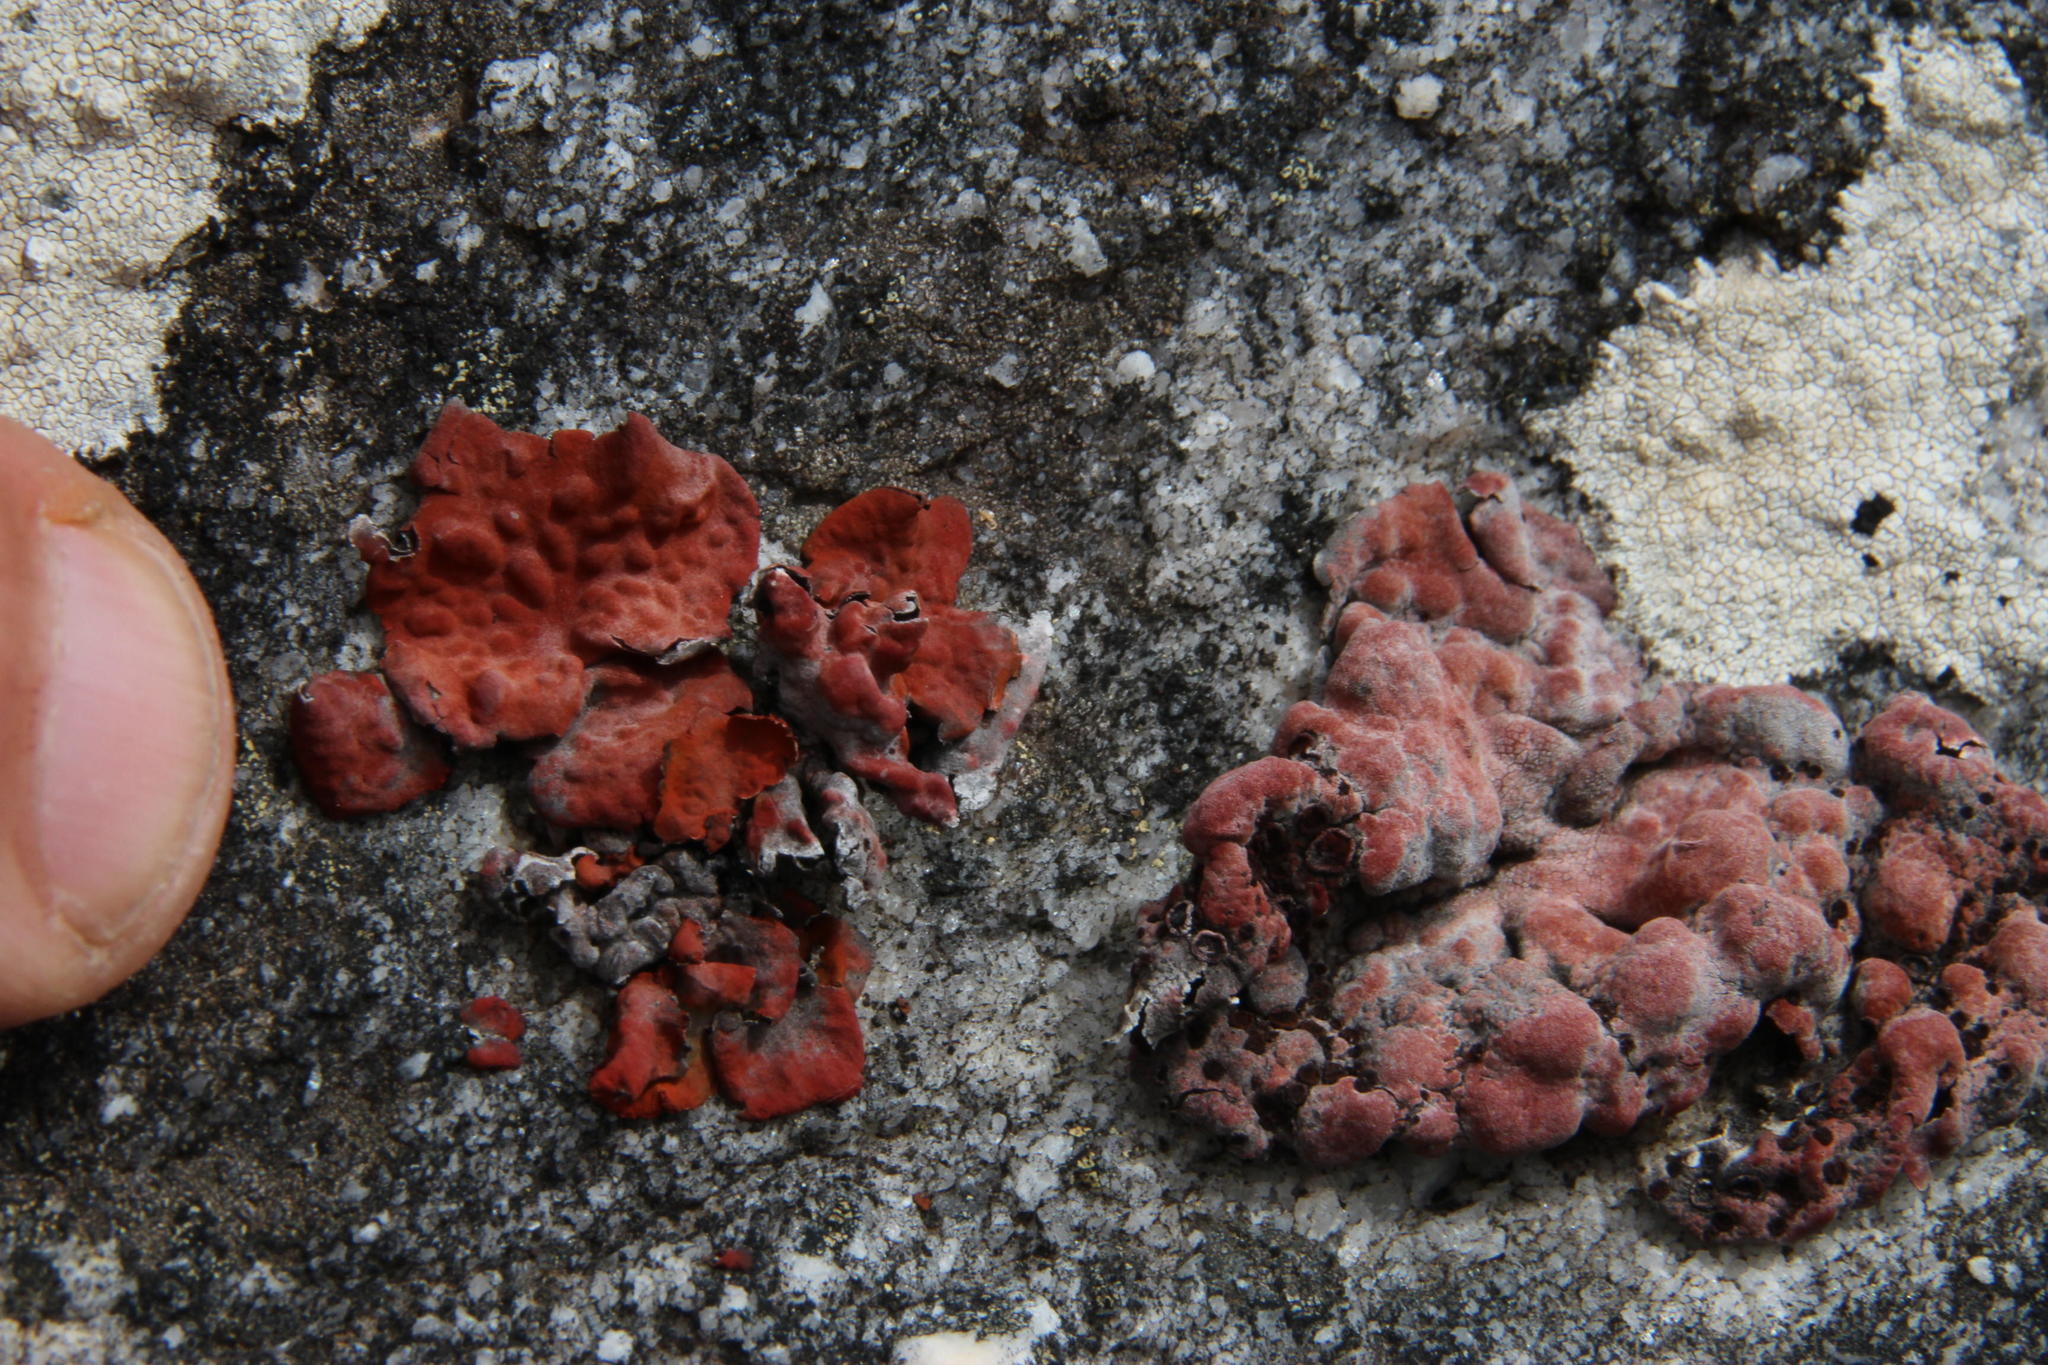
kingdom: Fungi
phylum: Ascomycota
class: Lecanoromycetes
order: Umbilicariales
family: Umbilicariaceae
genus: Lasallia
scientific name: Lasallia rubiginosa
